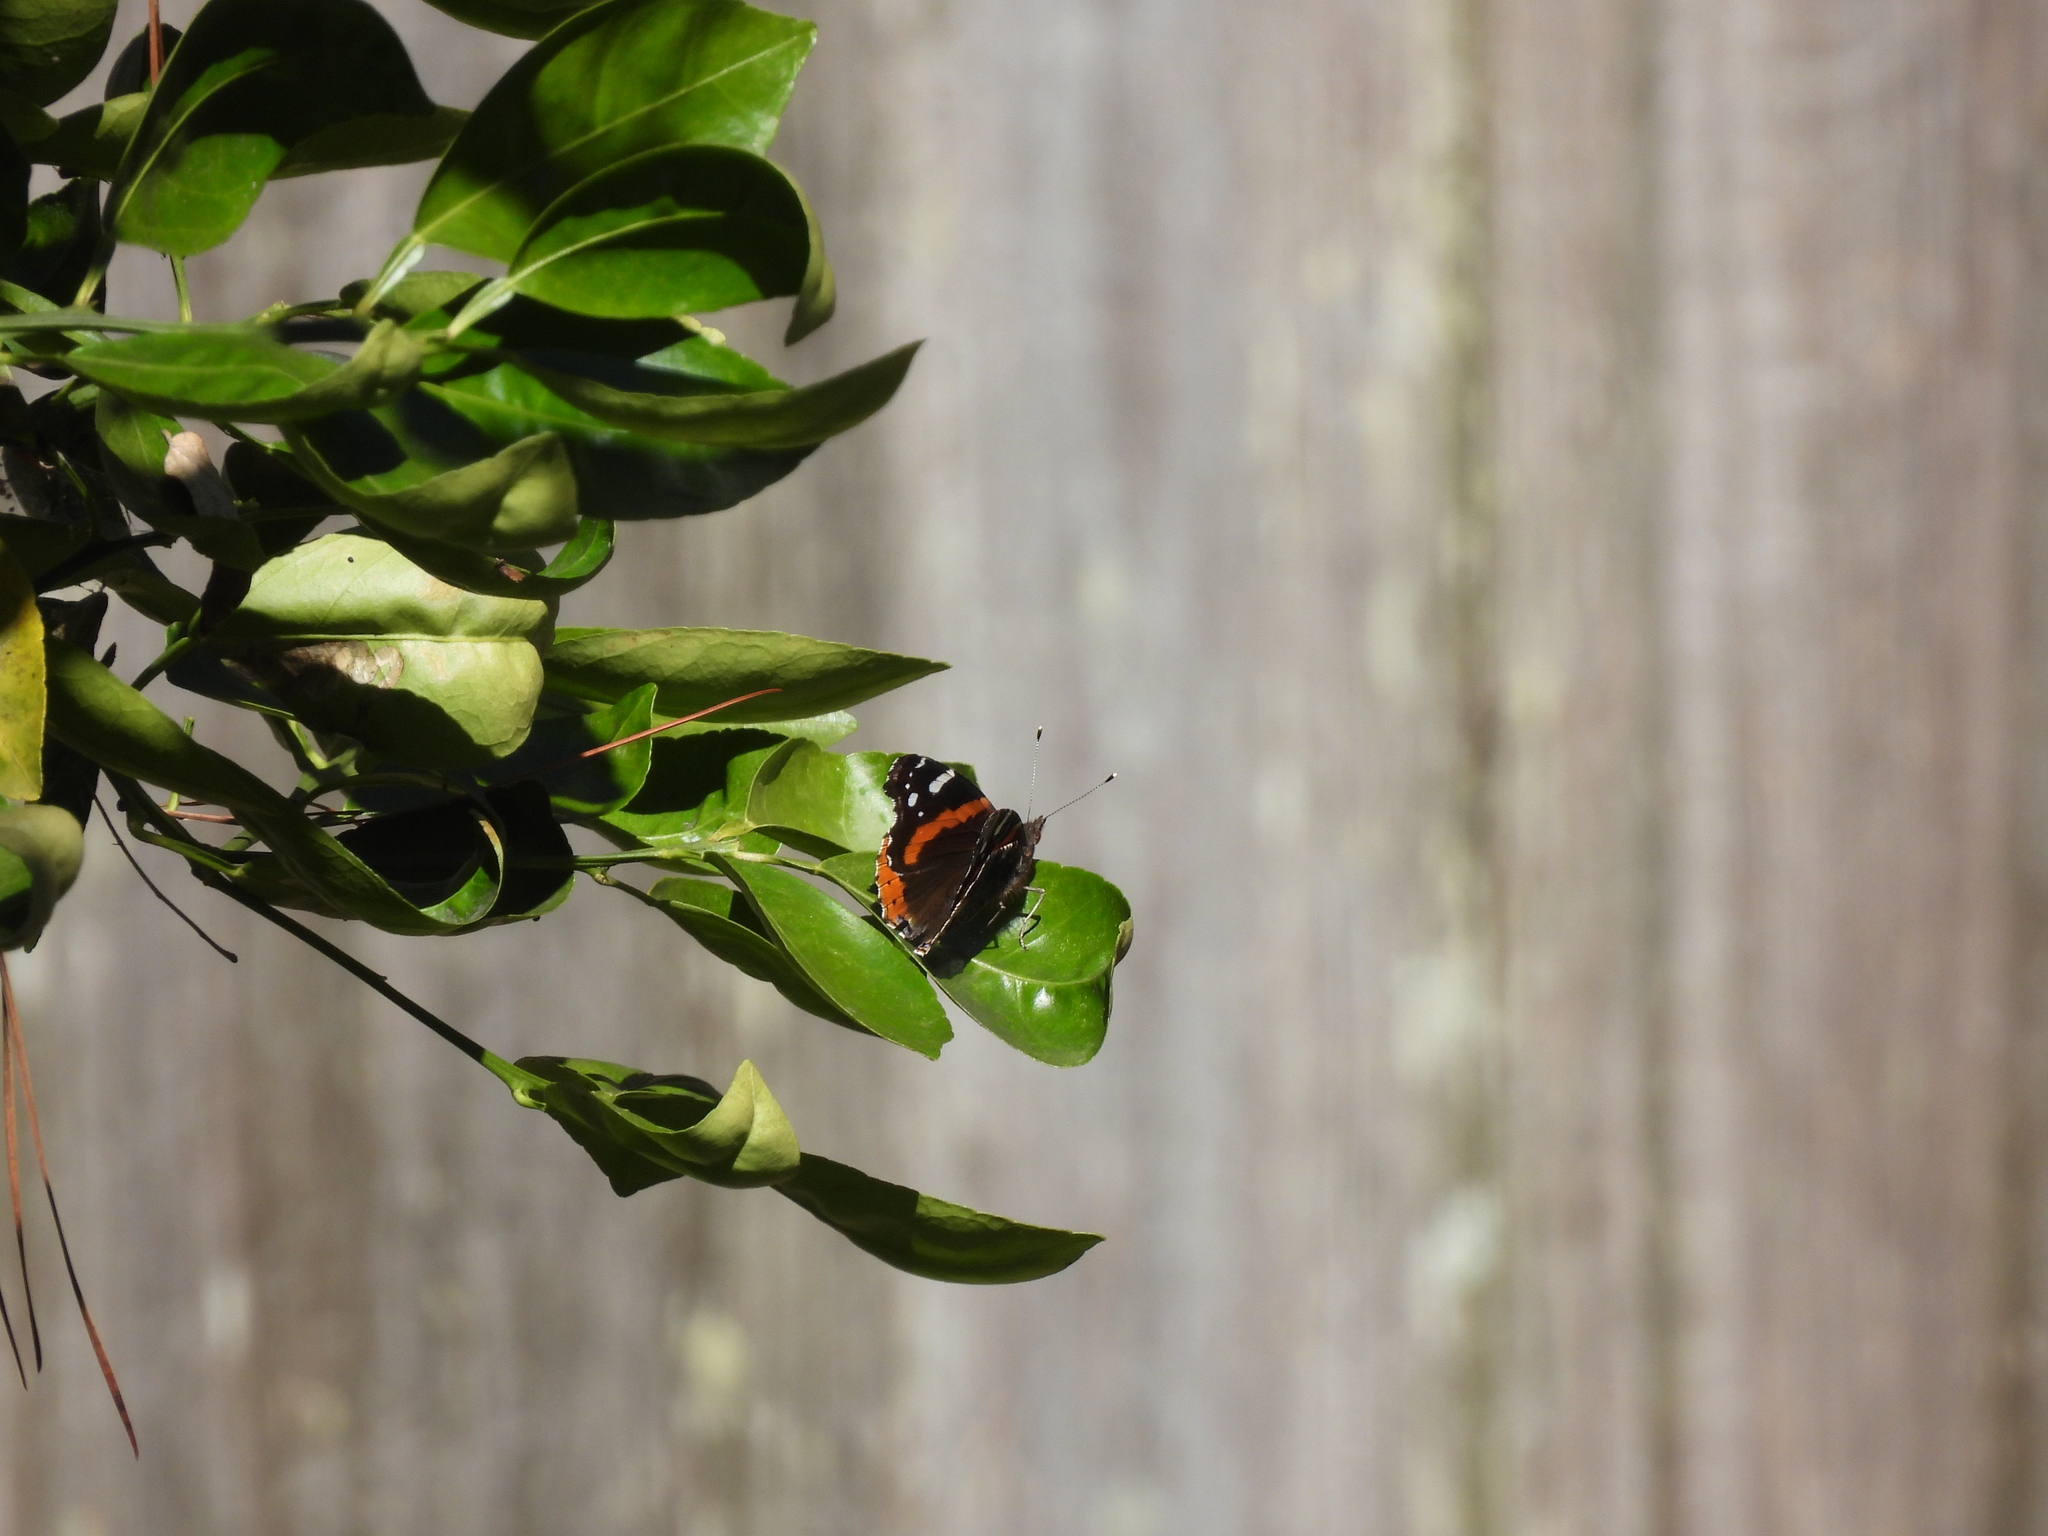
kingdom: Animalia
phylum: Arthropoda
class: Insecta
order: Lepidoptera
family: Nymphalidae
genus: Vanessa
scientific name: Vanessa atalanta
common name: Red admiral
